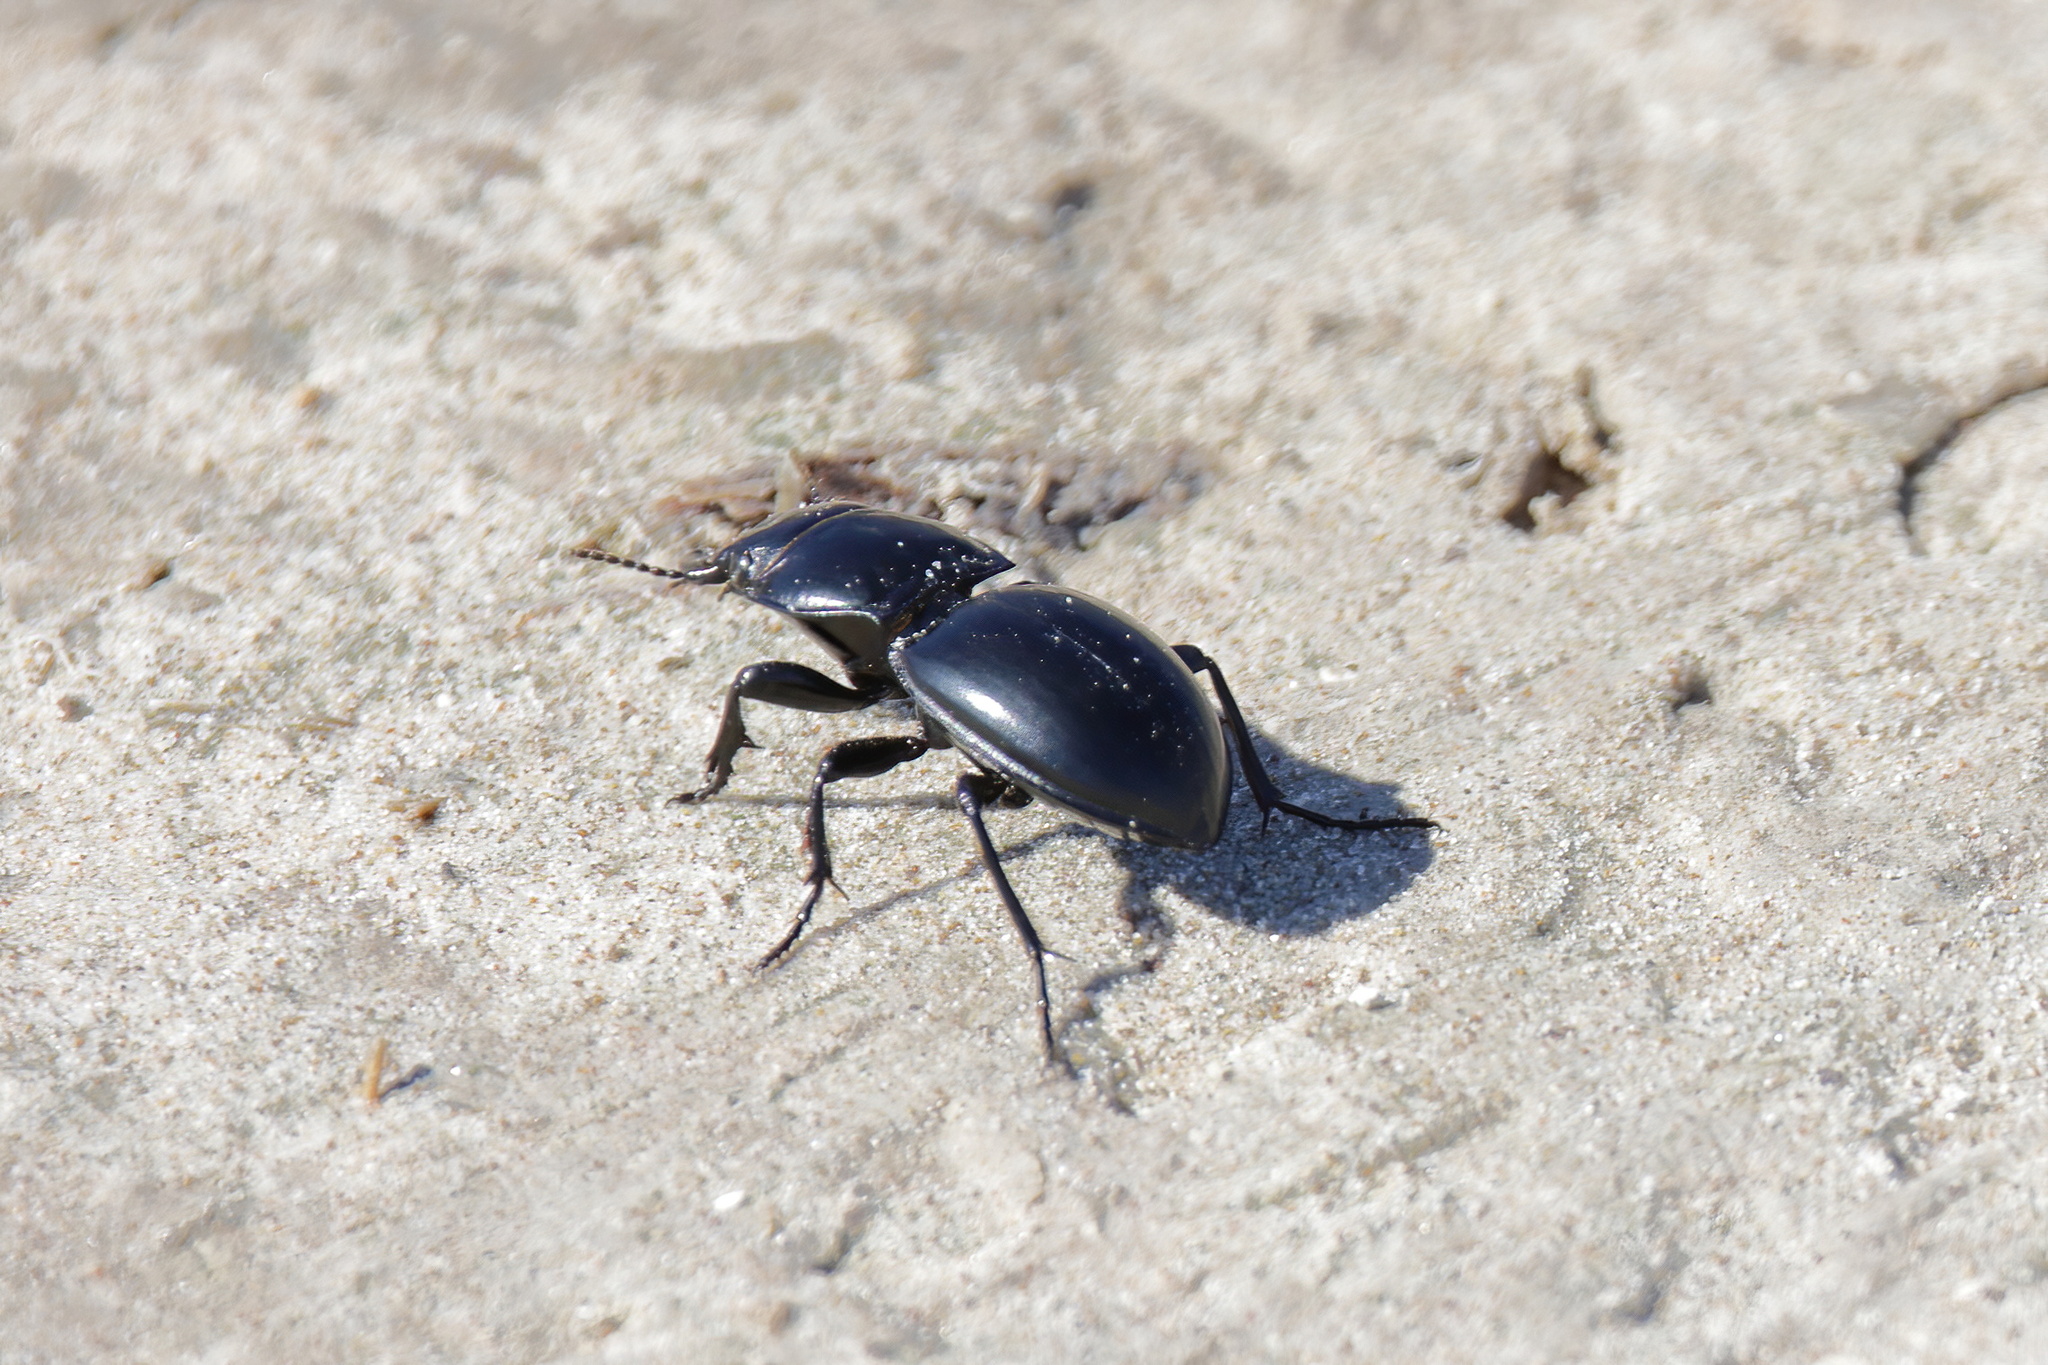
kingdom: Animalia
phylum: Arthropoda
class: Insecta
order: Coleoptera
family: Carabidae
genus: Pasimachus
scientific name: Pasimachus californicus
